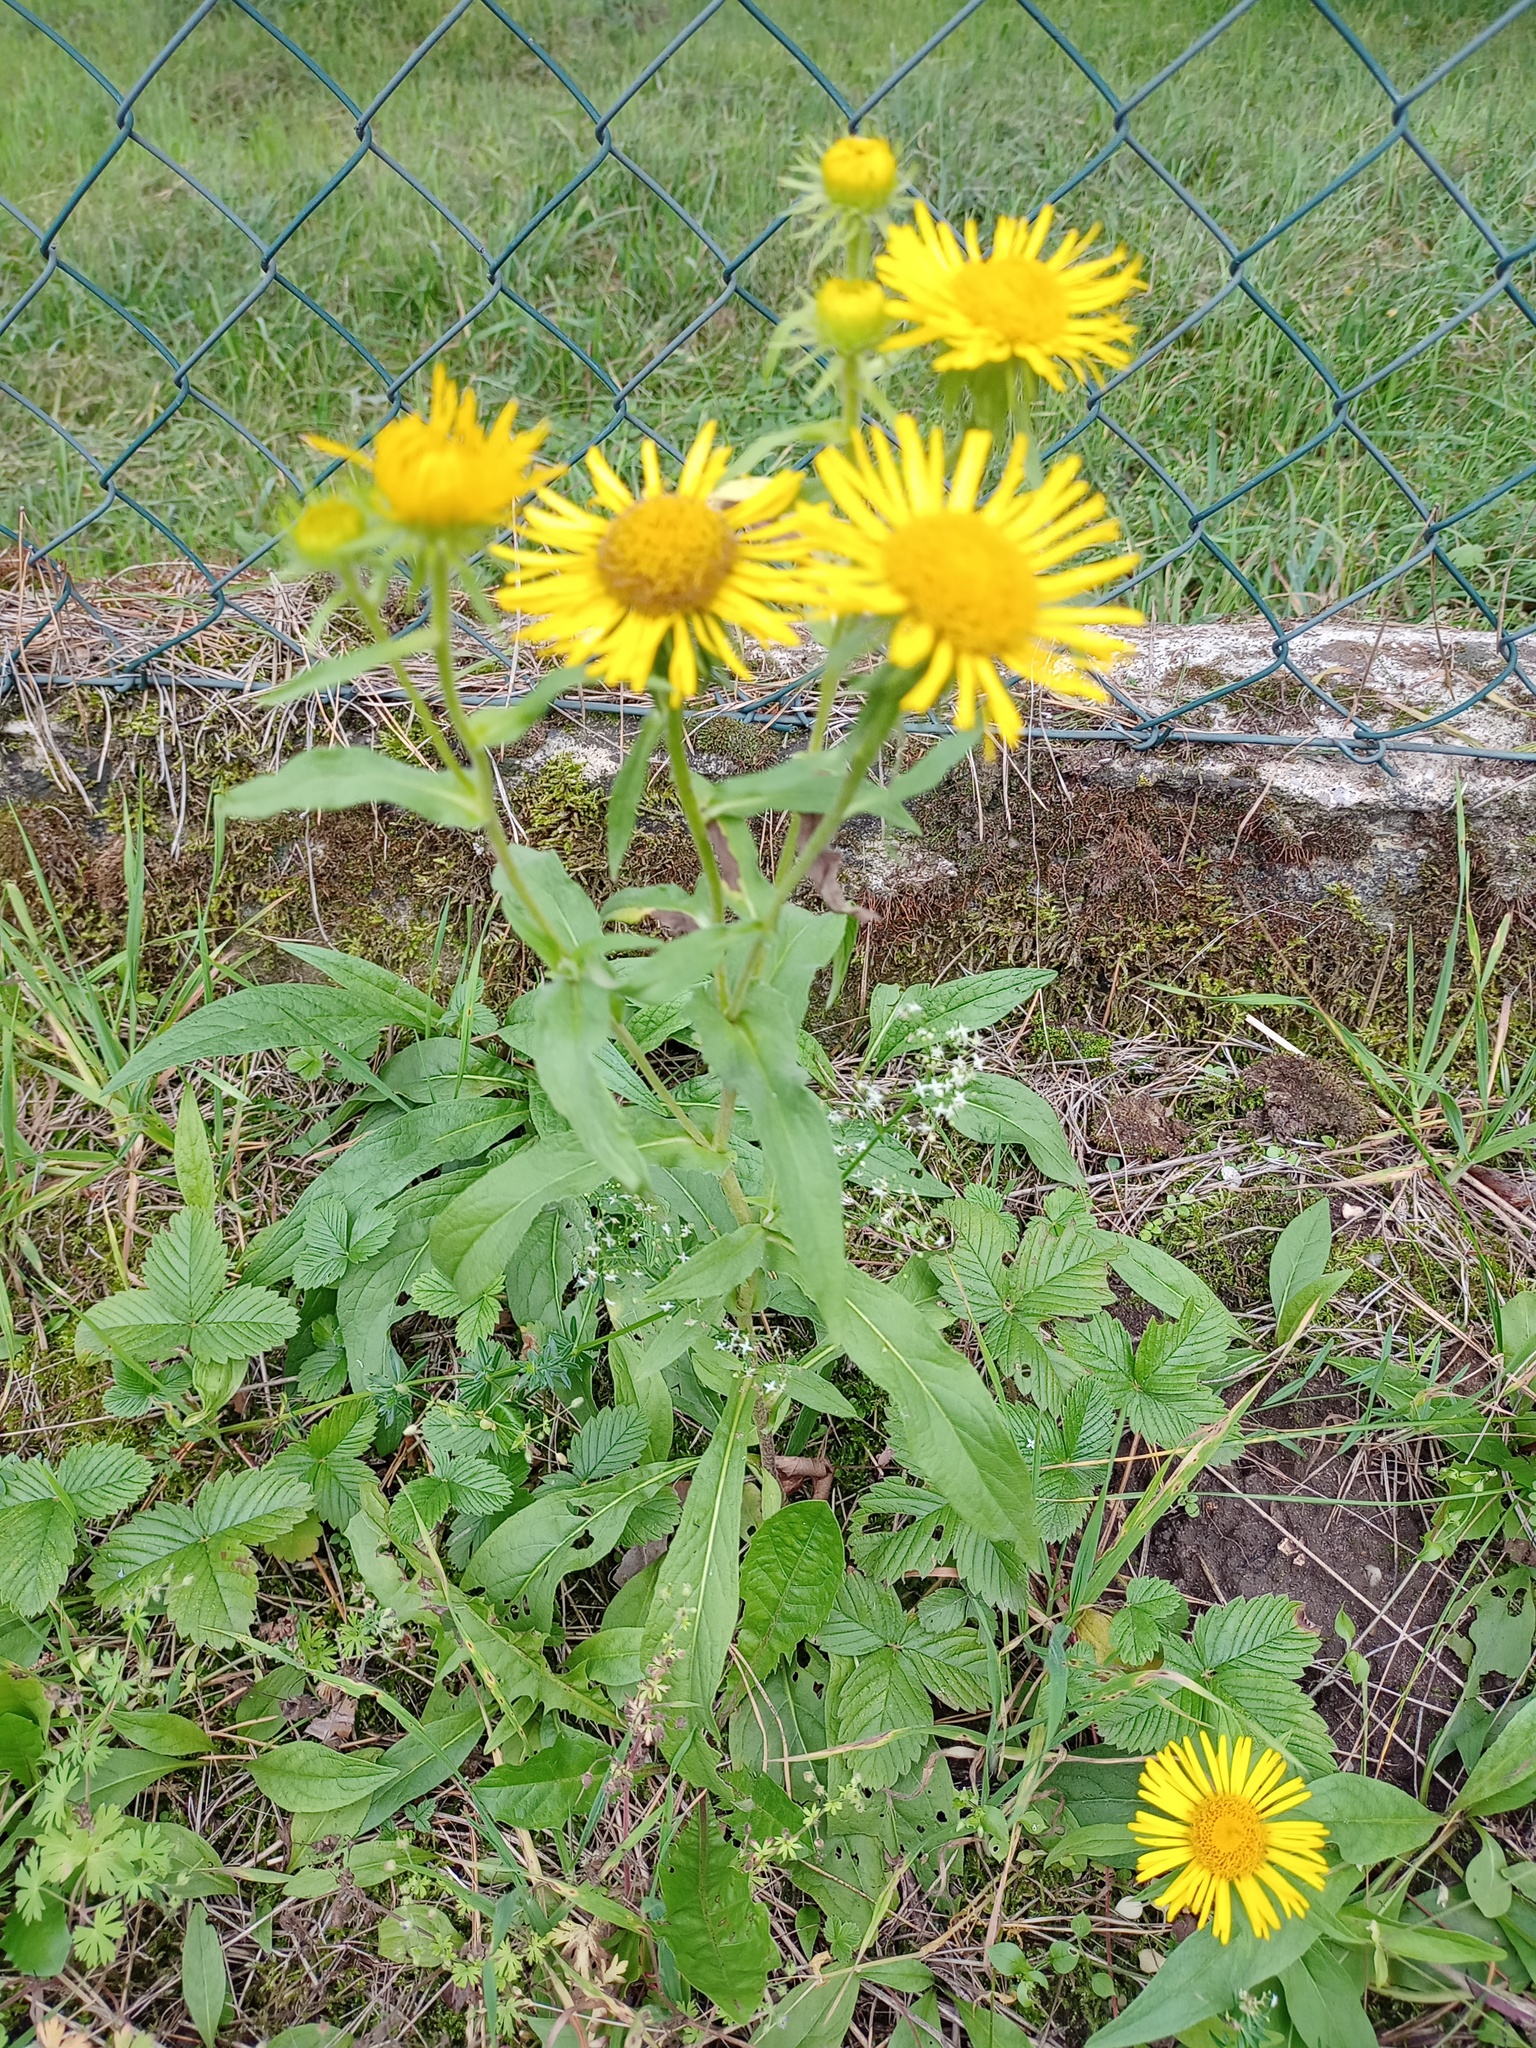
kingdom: Plantae
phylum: Tracheophyta
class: Magnoliopsida
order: Asterales
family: Asteraceae
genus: Pentanema
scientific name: Pentanema britannicum
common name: British elecampane
